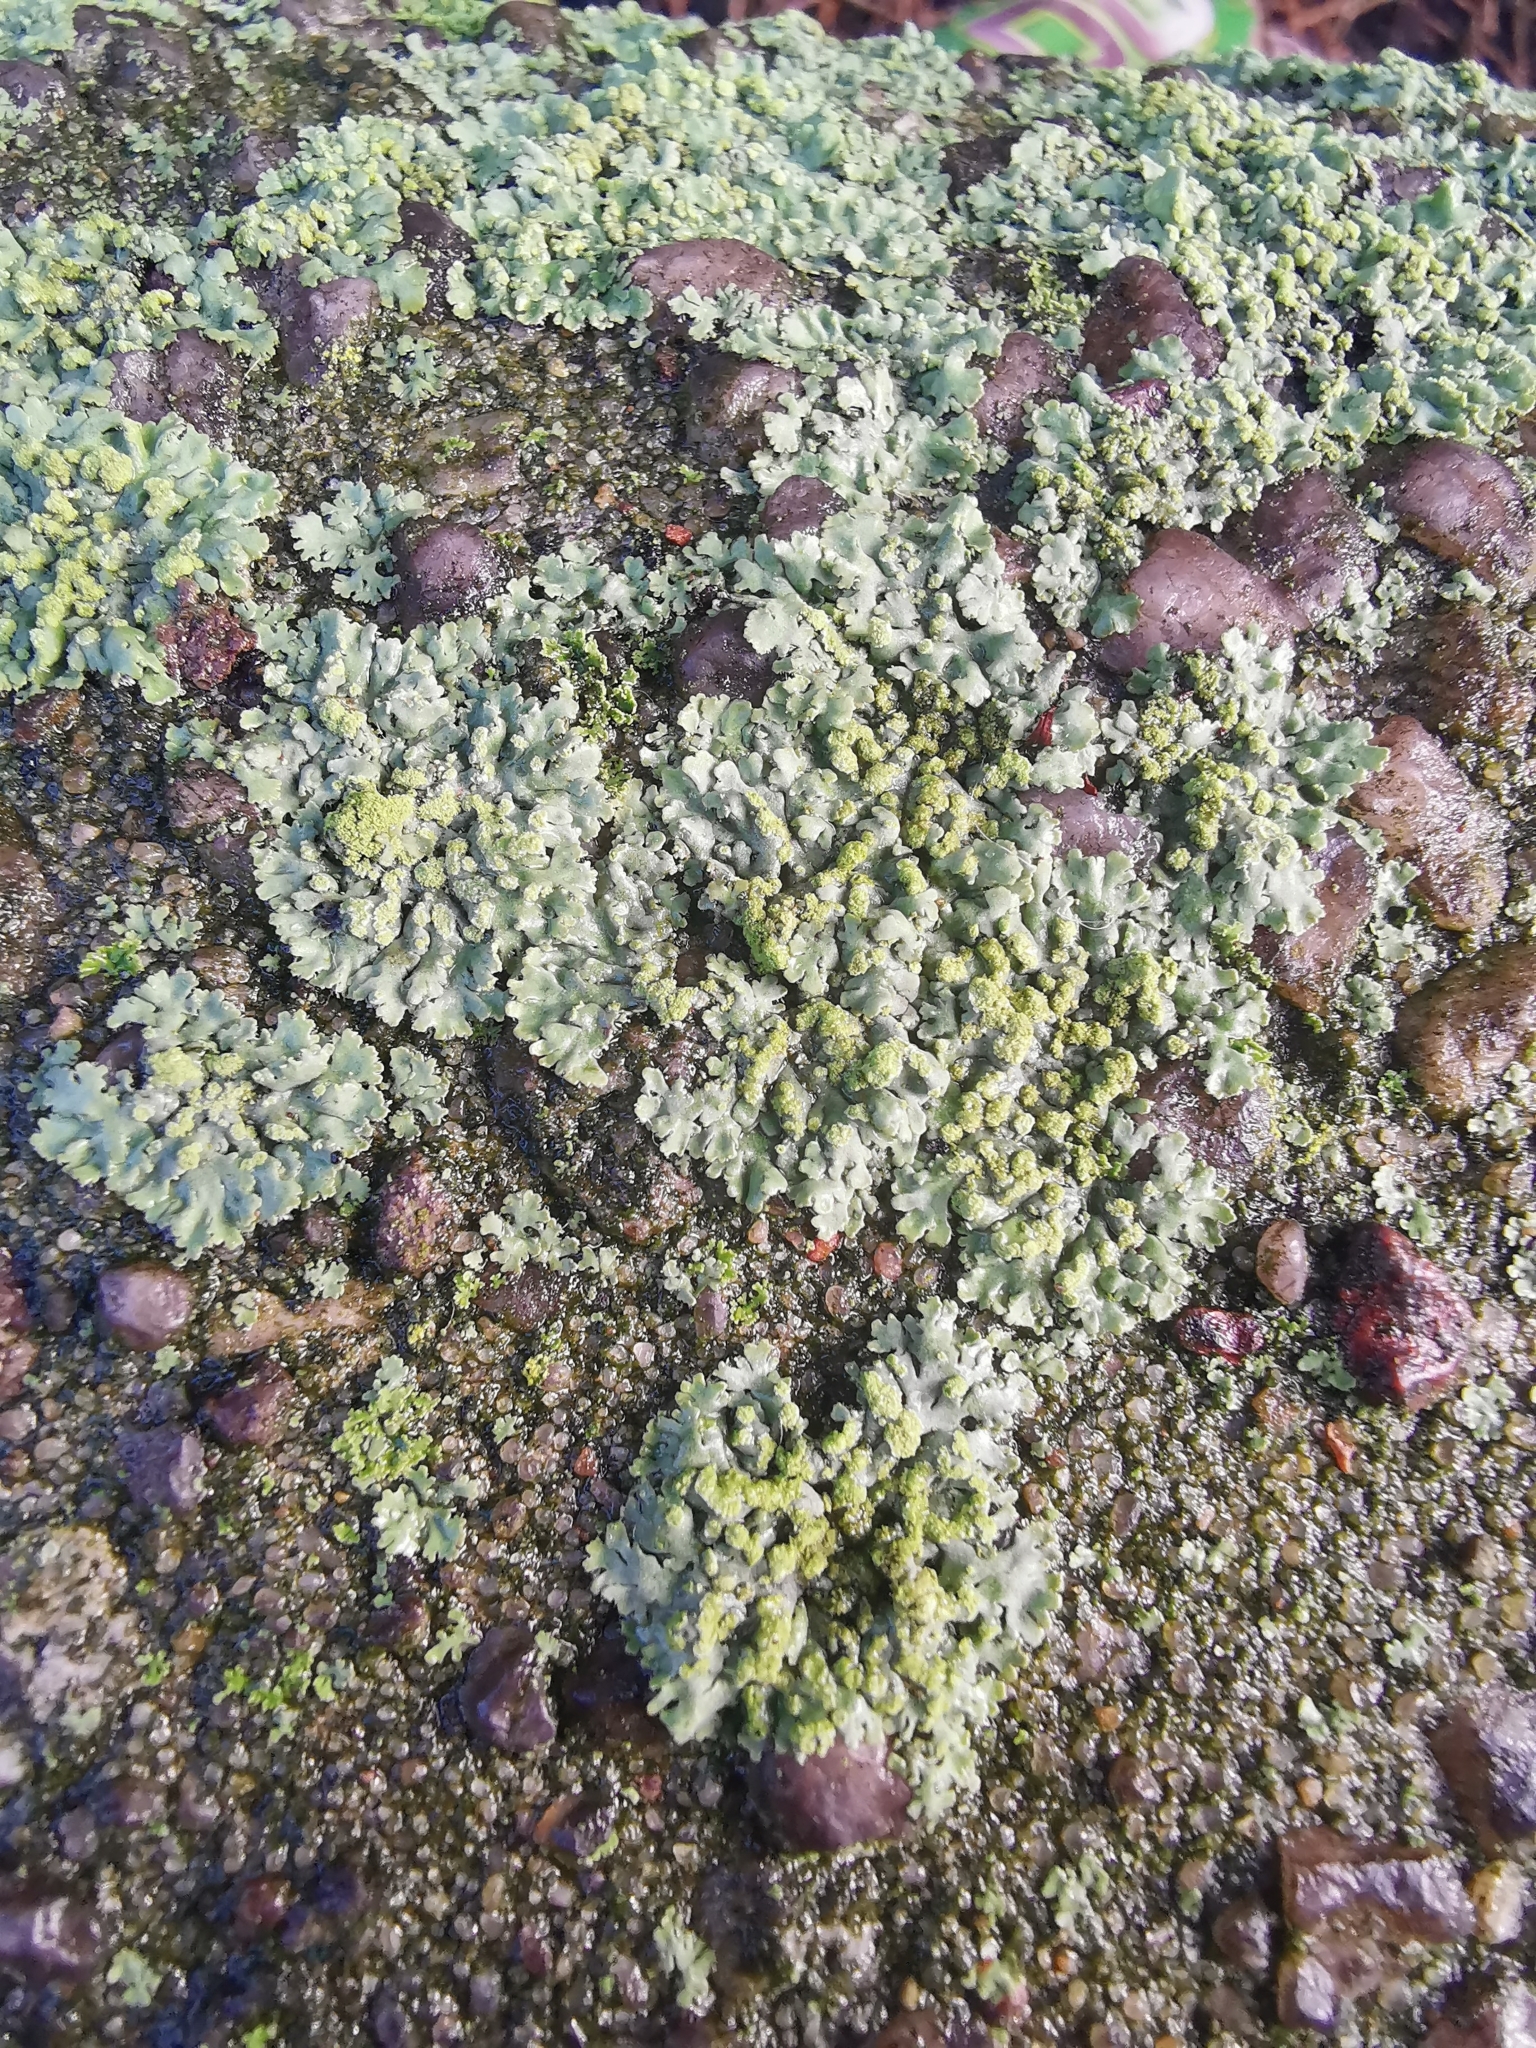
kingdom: Fungi
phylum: Ascomycota
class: Lecanoromycetes
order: Caliciales
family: Physciaceae
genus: Phaeophyscia
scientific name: Phaeophyscia orbicularis
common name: Mealy shadow lichen
